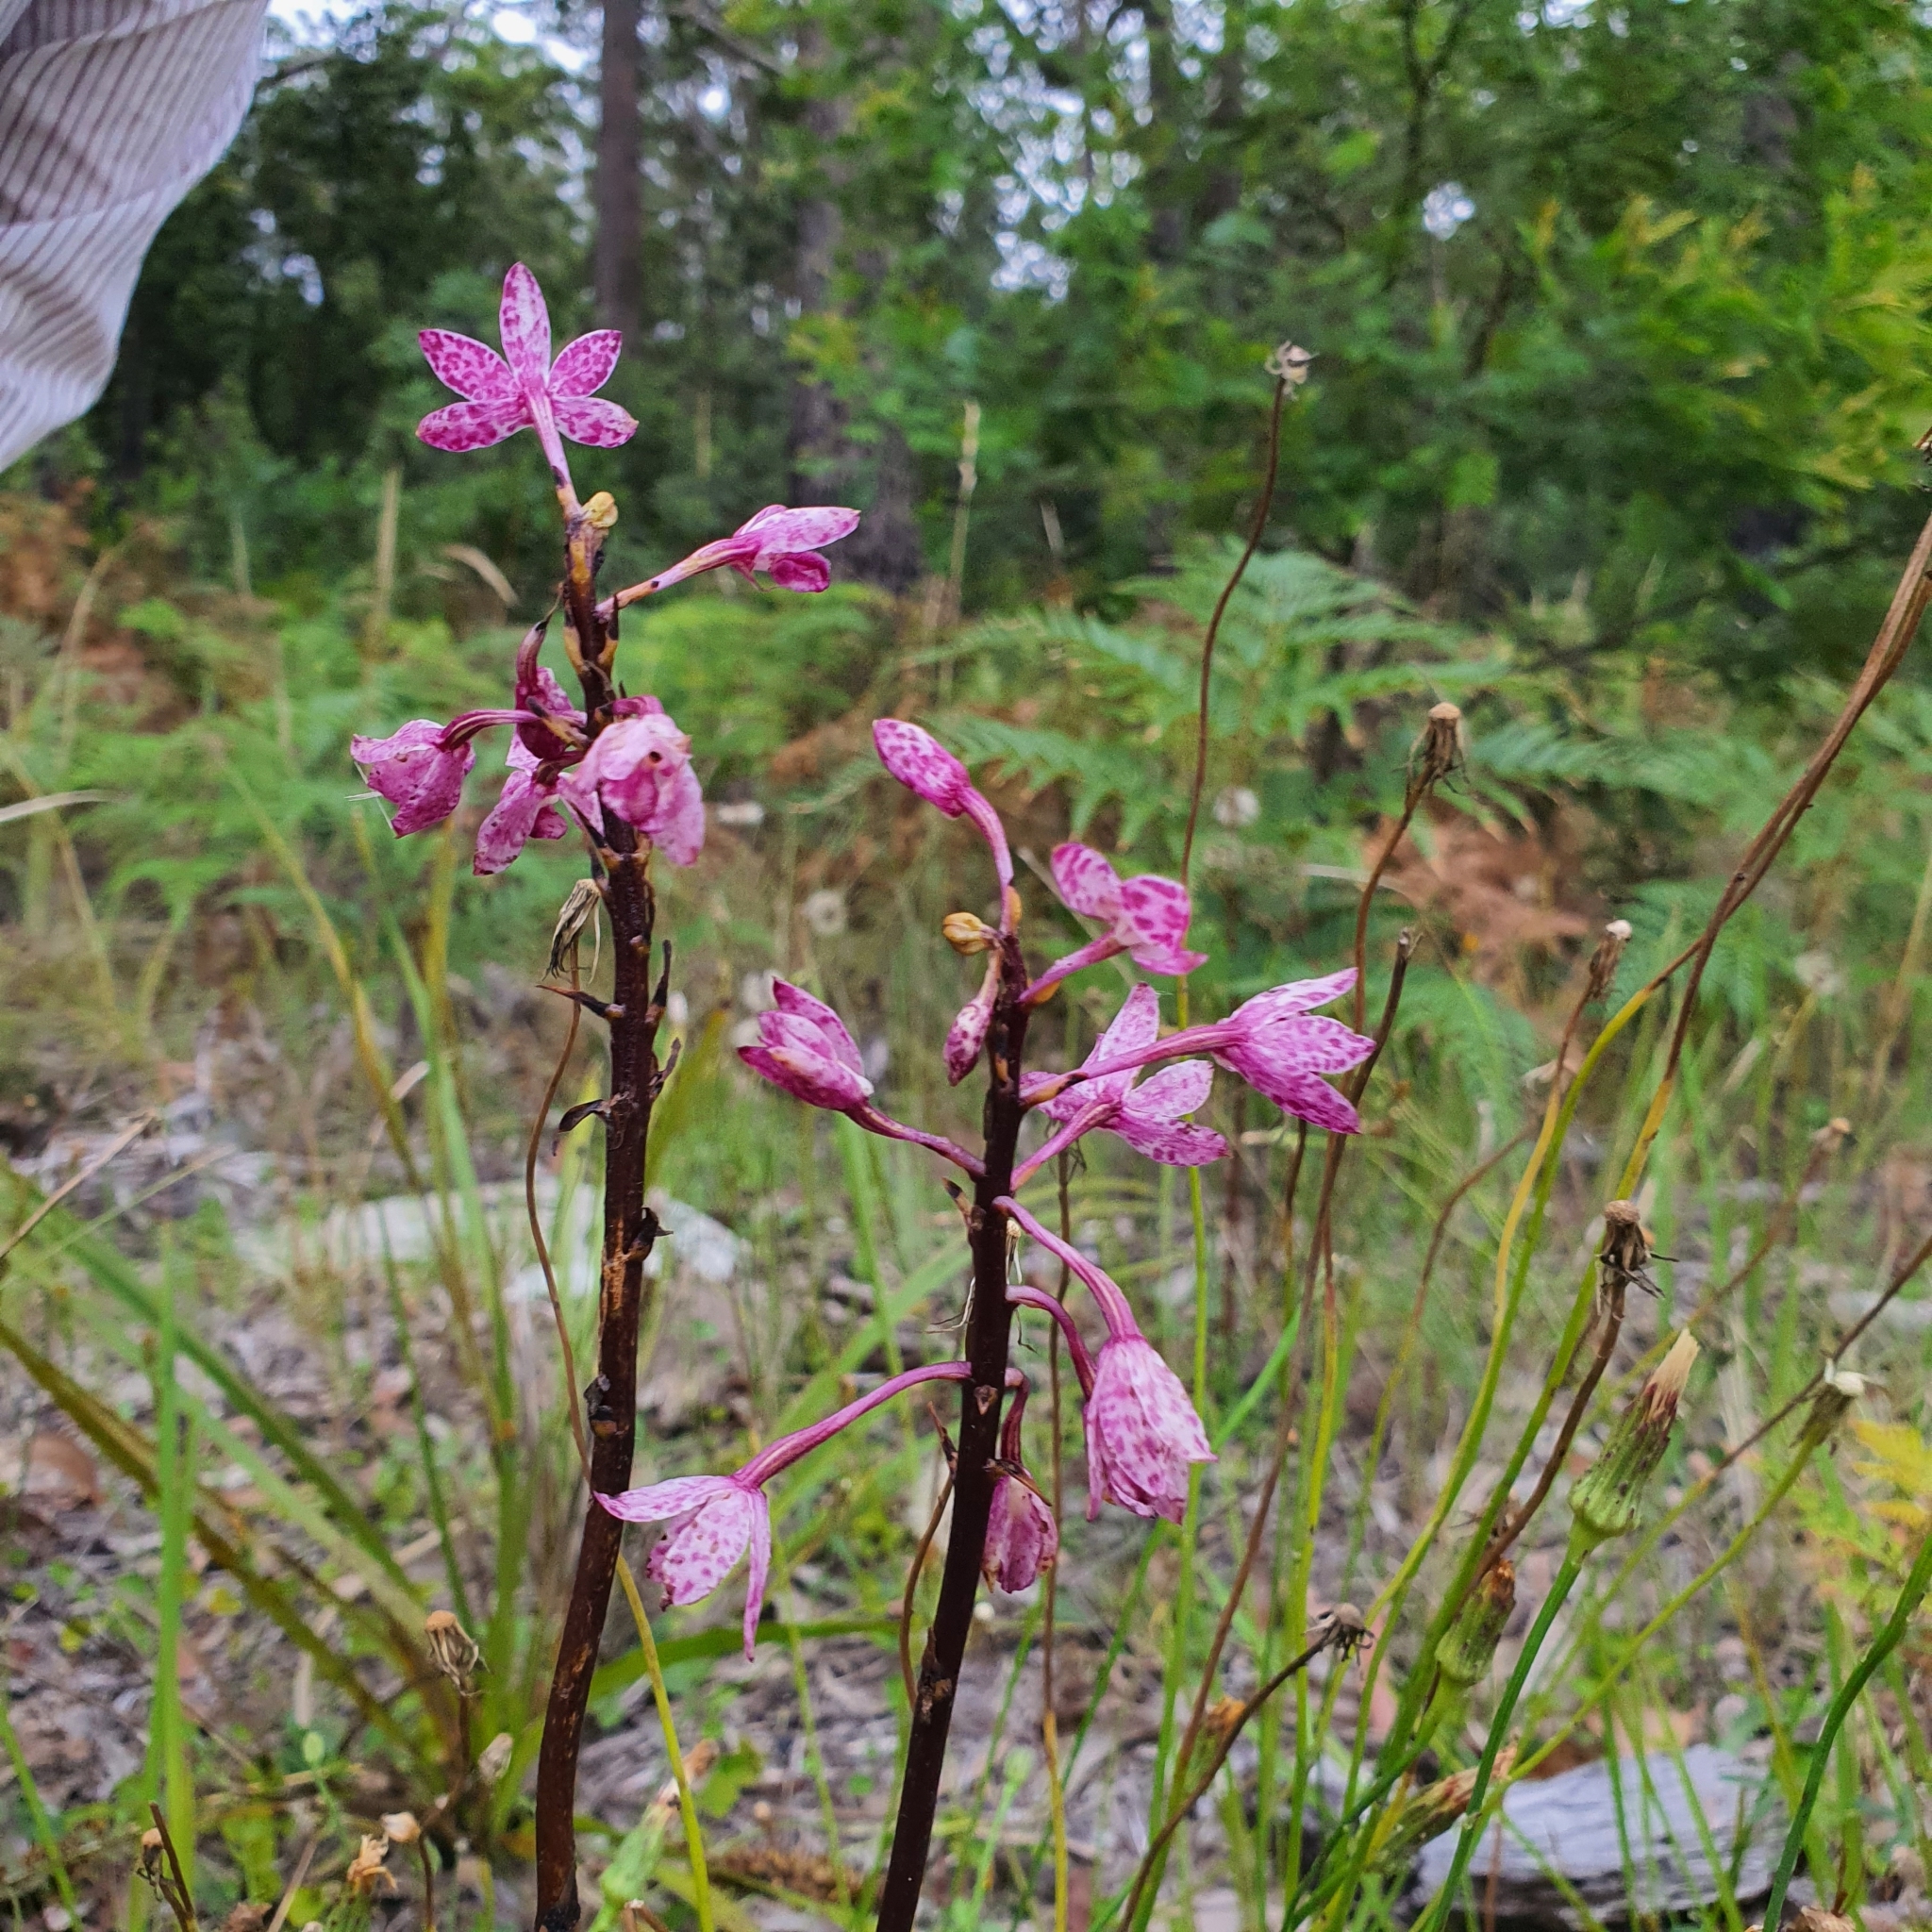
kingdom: Plantae
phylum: Tracheophyta
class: Liliopsida
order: Asparagales
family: Orchidaceae
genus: Dipodium
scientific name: Dipodium squamatum
